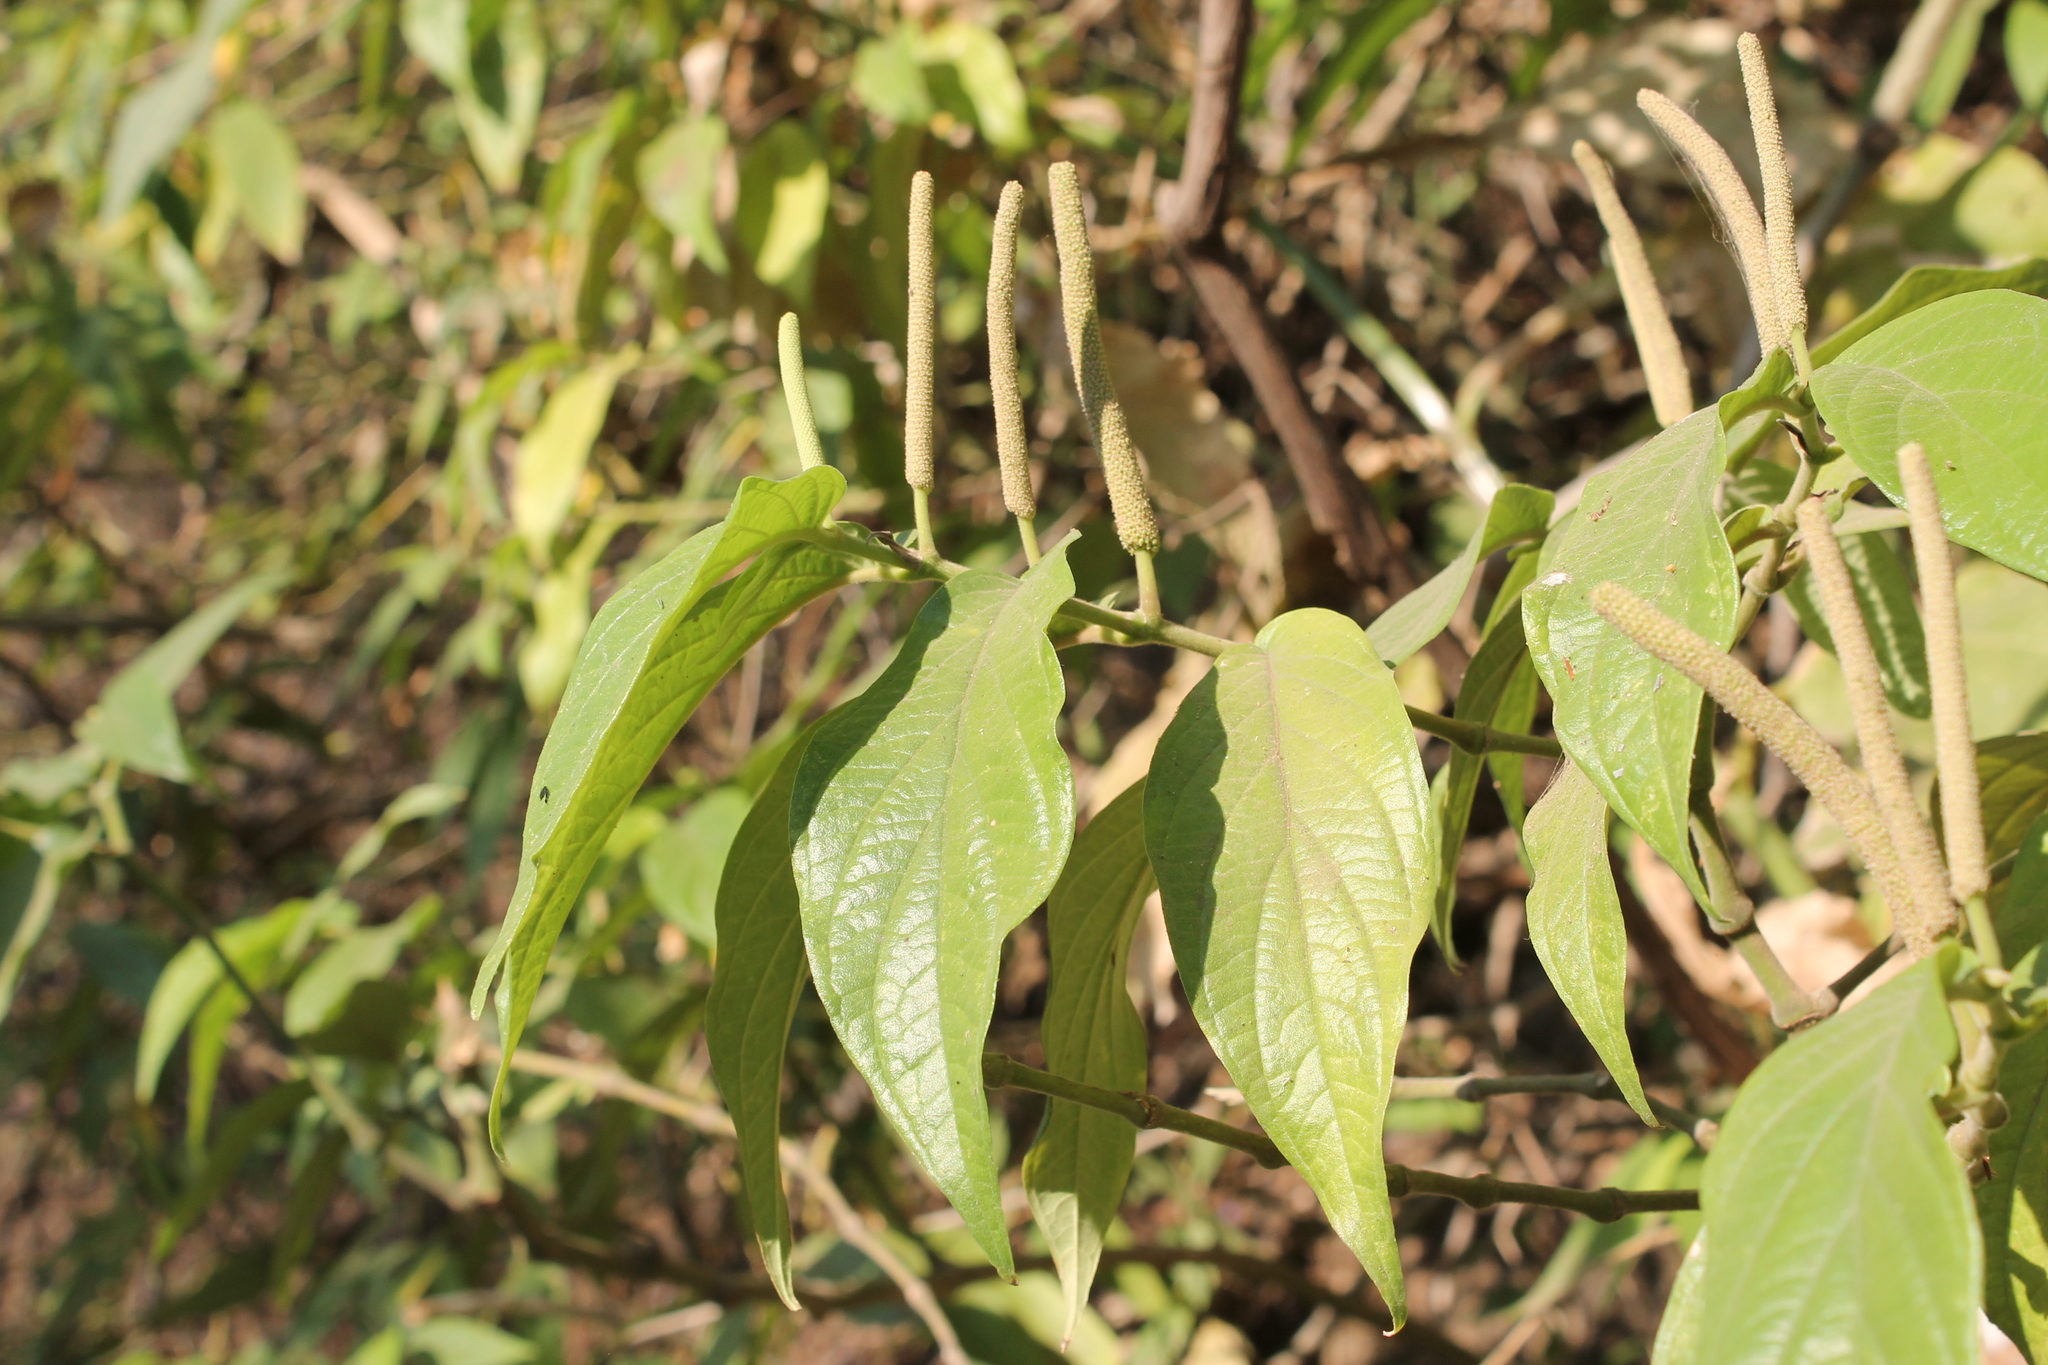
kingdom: Plantae
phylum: Tracheophyta
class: Magnoliopsida
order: Piperales
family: Piperaceae
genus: Piper
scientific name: Piper villiramulum
